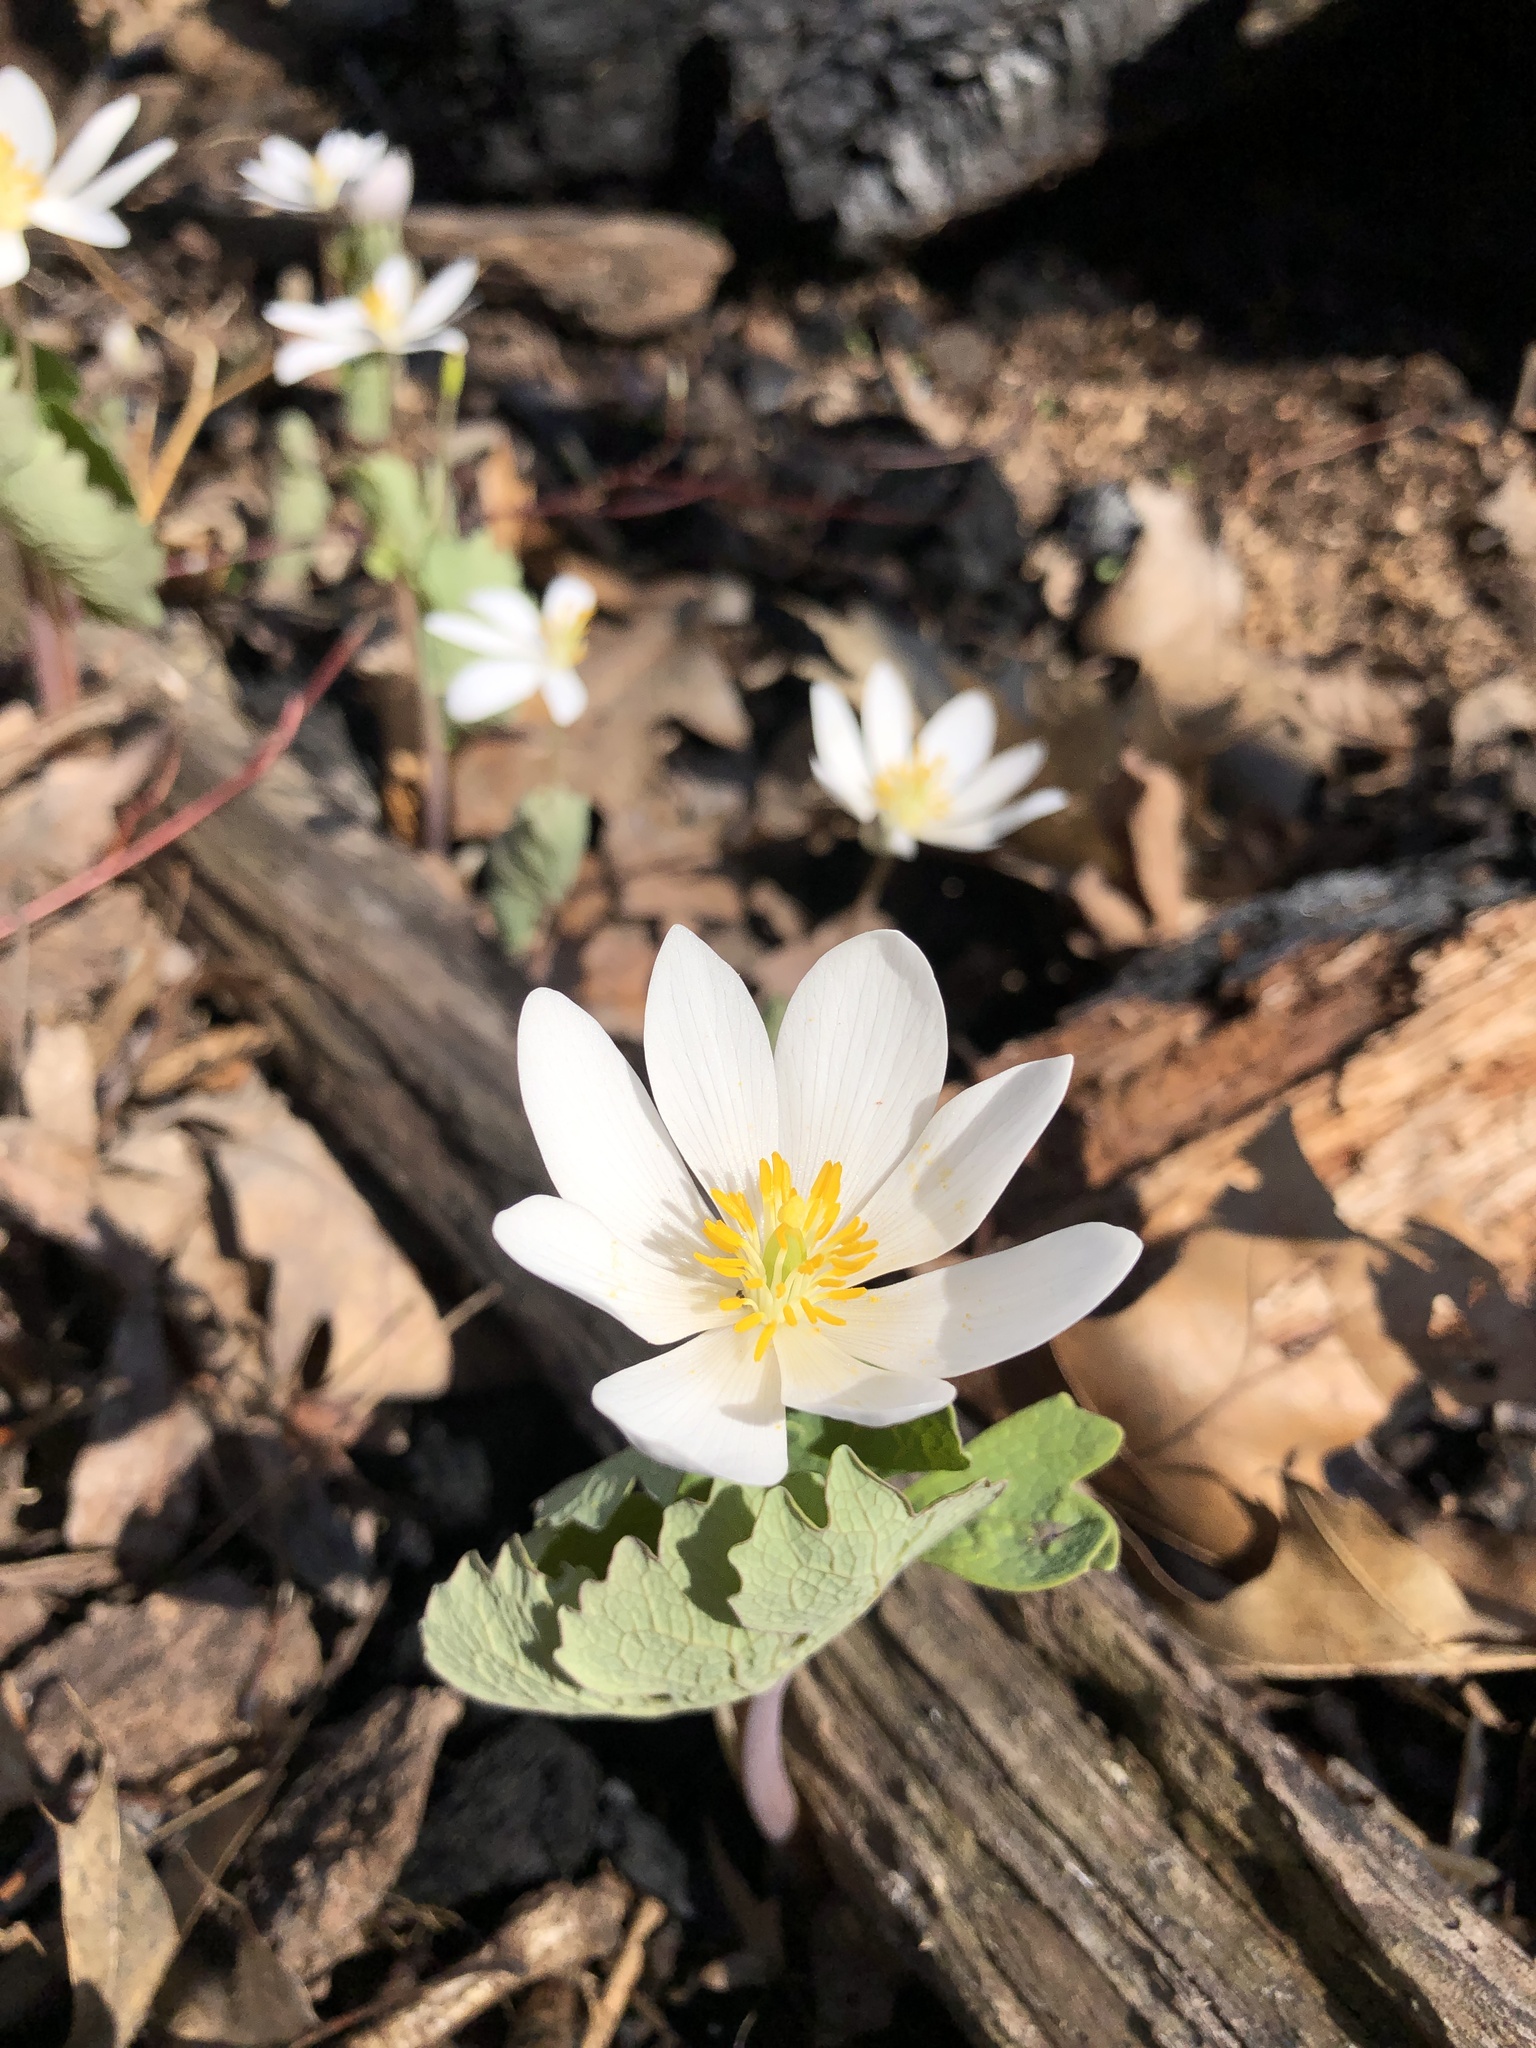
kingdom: Plantae
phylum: Tracheophyta
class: Magnoliopsida
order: Ranunculales
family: Papaveraceae
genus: Sanguinaria
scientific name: Sanguinaria canadensis
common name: Bloodroot
